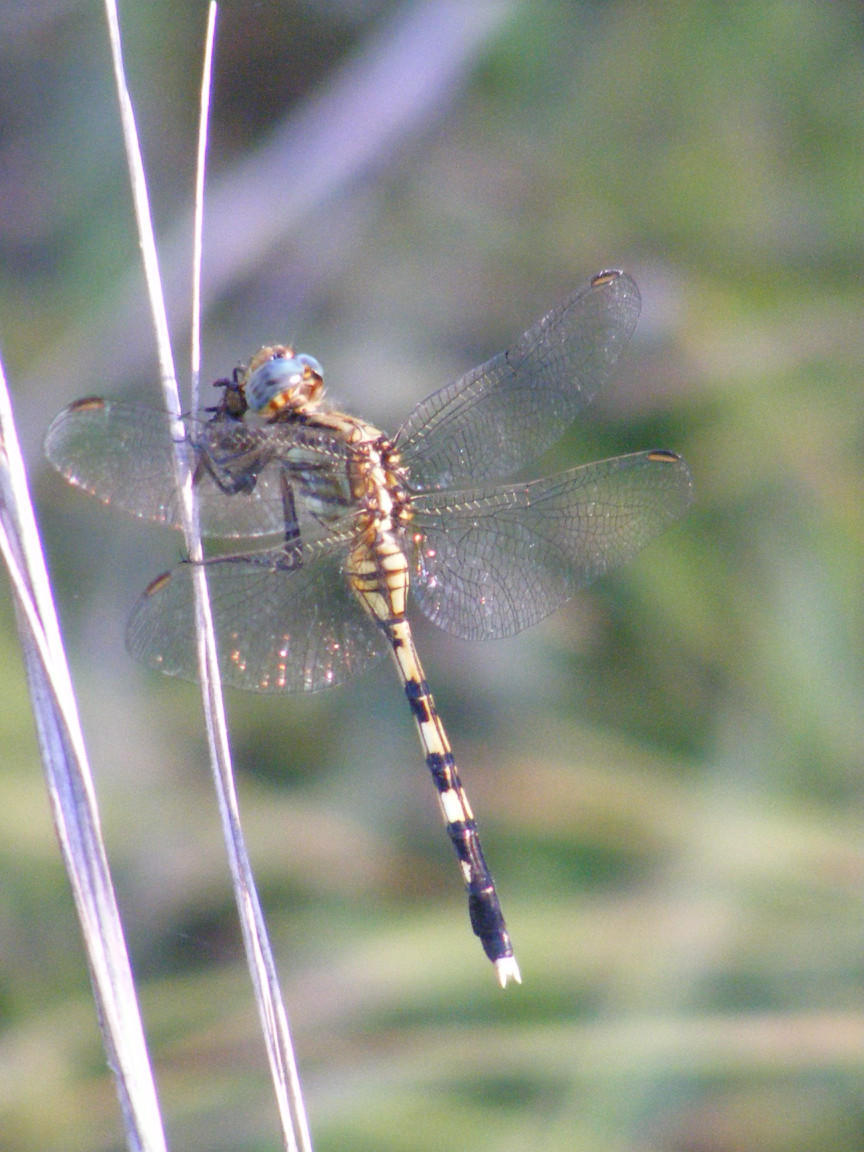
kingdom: Animalia
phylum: Arthropoda
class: Insecta
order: Odonata
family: Libellulidae
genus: Orthetrum
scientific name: Orthetrum stemmale
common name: Bold skimmer
